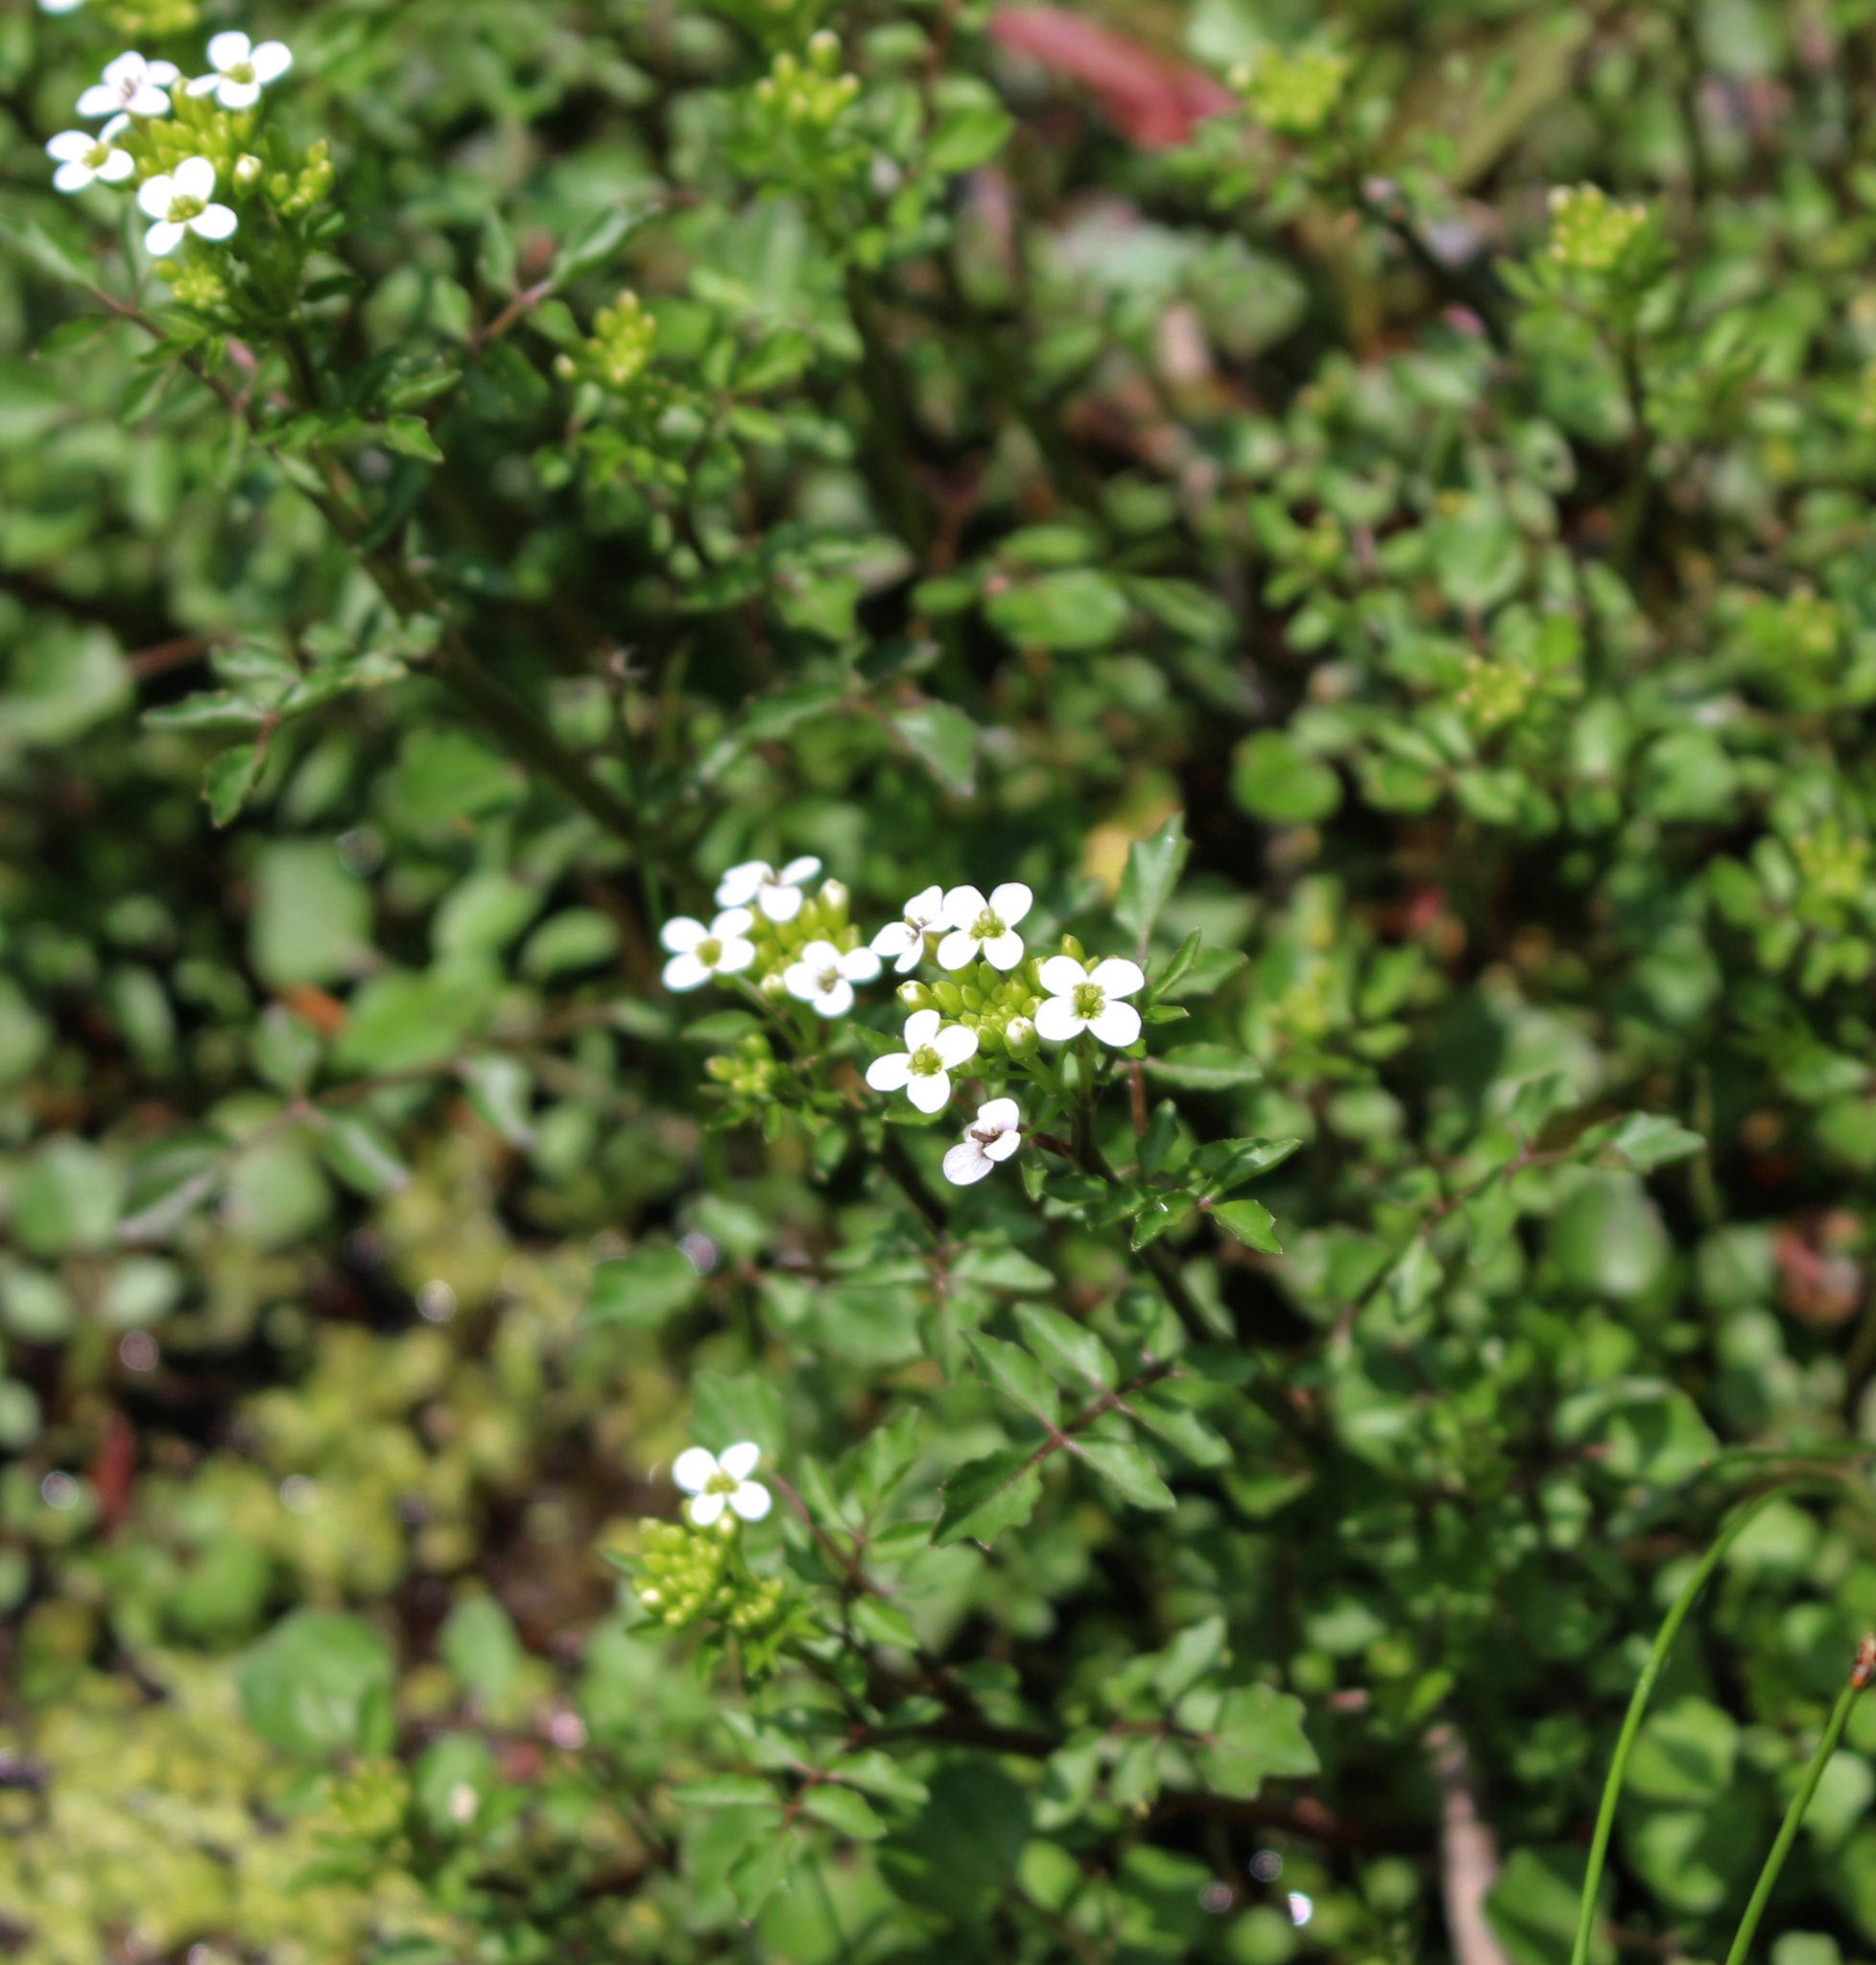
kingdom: Plantae
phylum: Tracheophyta
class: Magnoliopsida
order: Brassicales
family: Brassicaceae
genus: Nasturtium
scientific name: Nasturtium officinale
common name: Watercress
